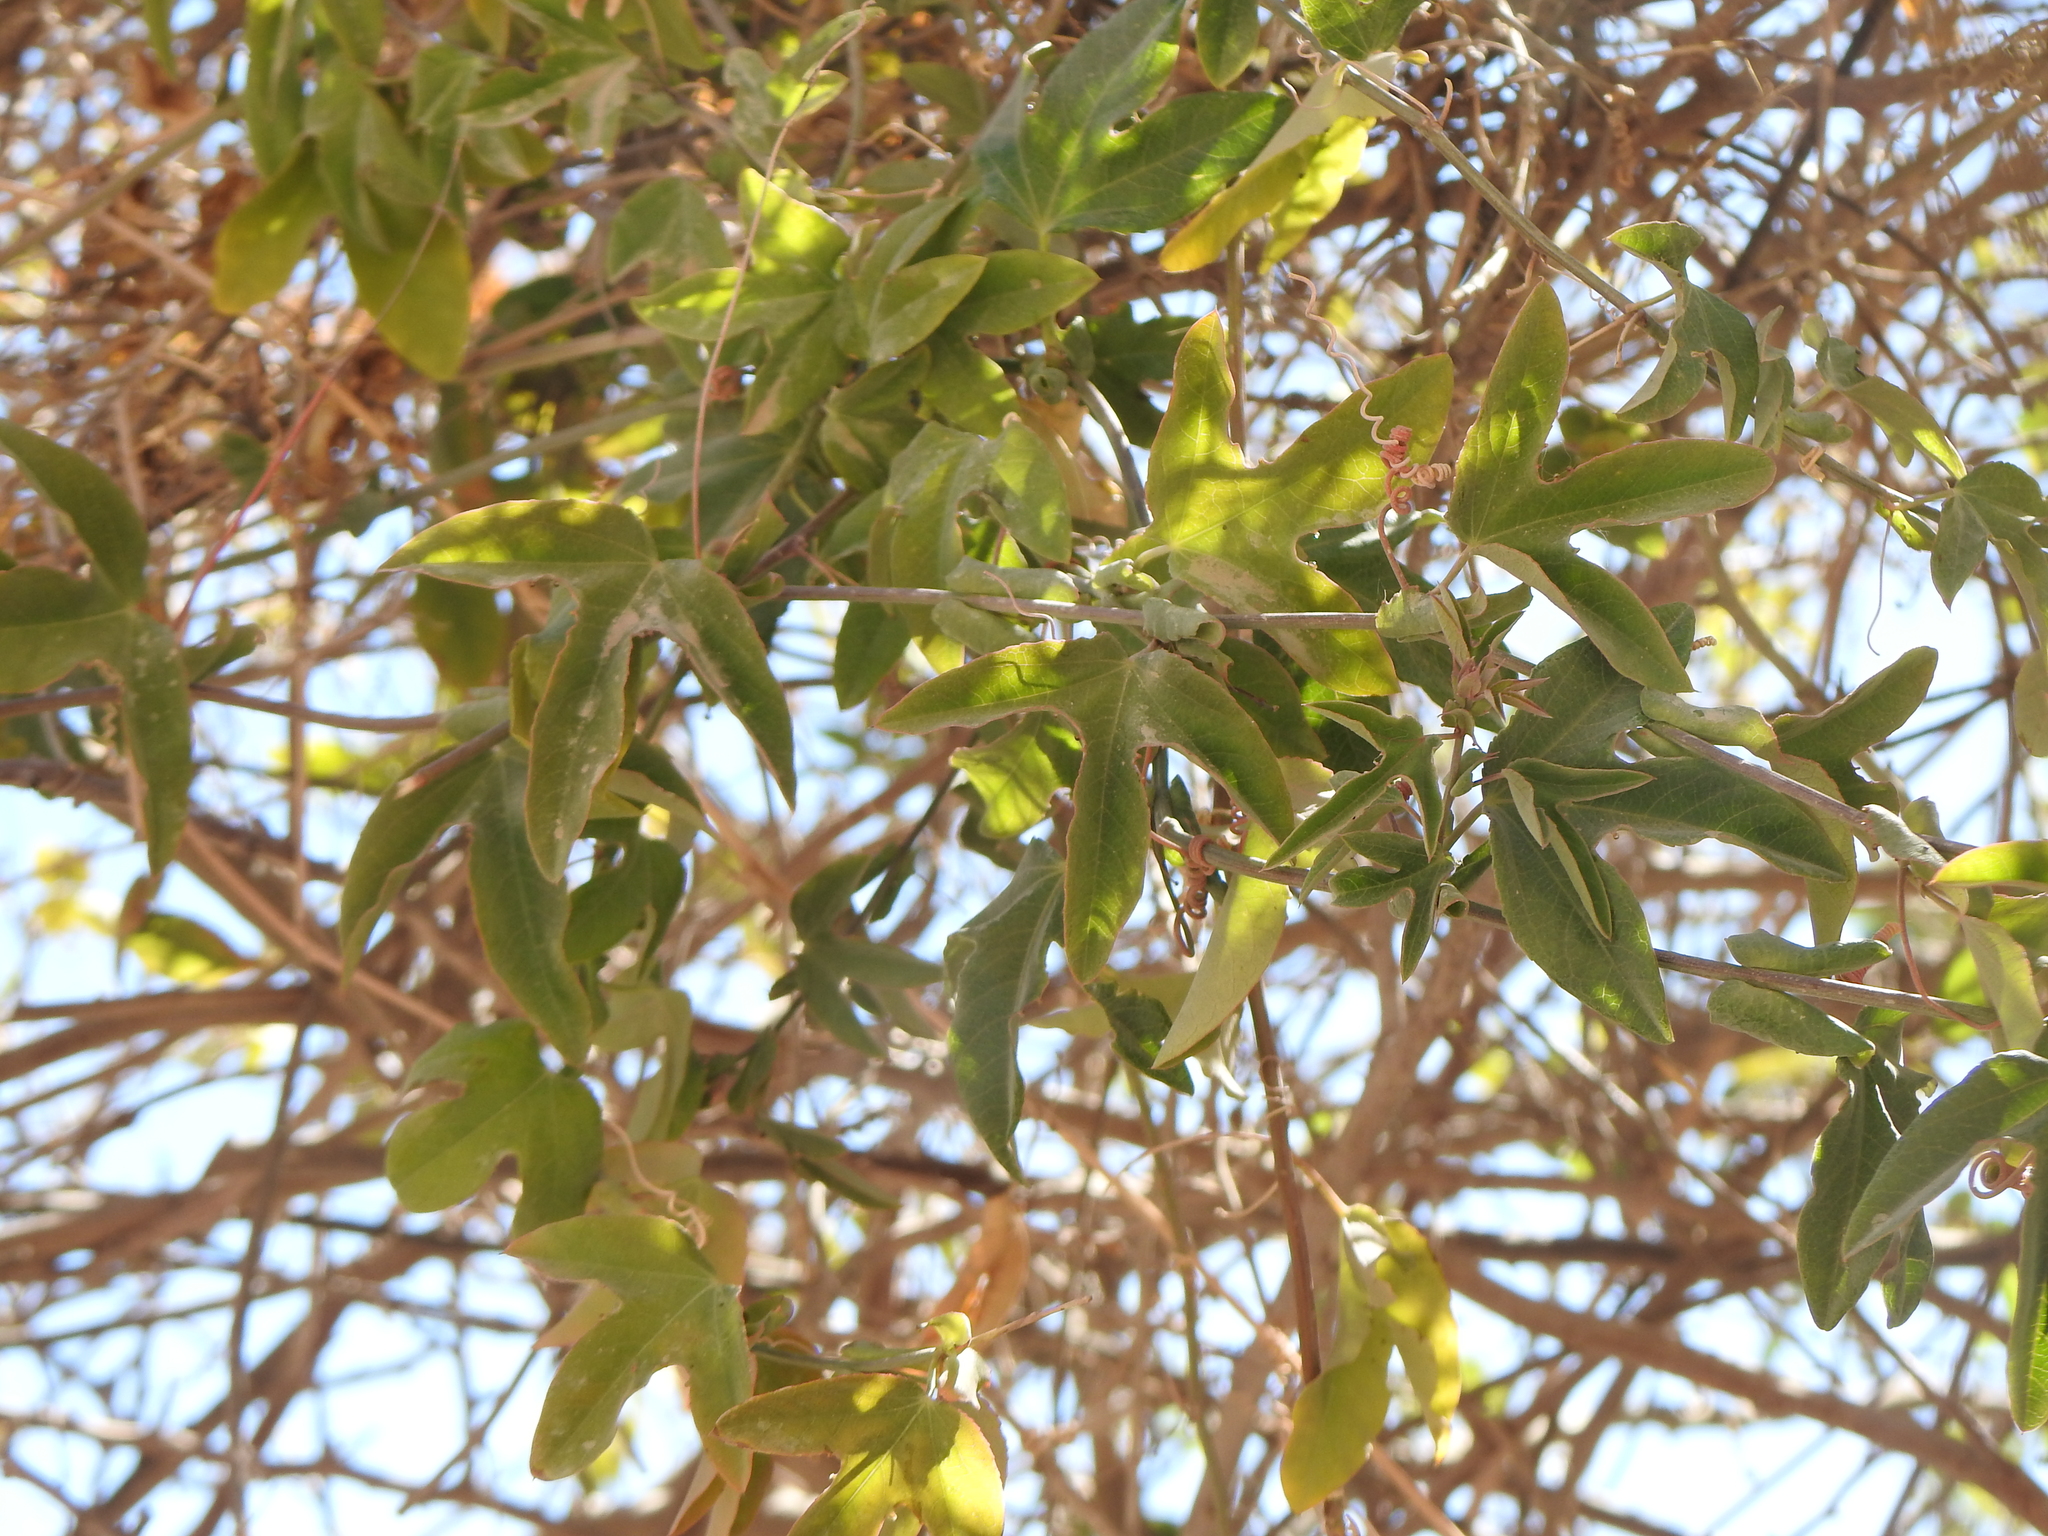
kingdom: Plantae
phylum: Tracheophyta
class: Magnoliopsida
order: Malpighiales
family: Passifloraceae
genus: Passiflora
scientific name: Passiflora tucumanensis
